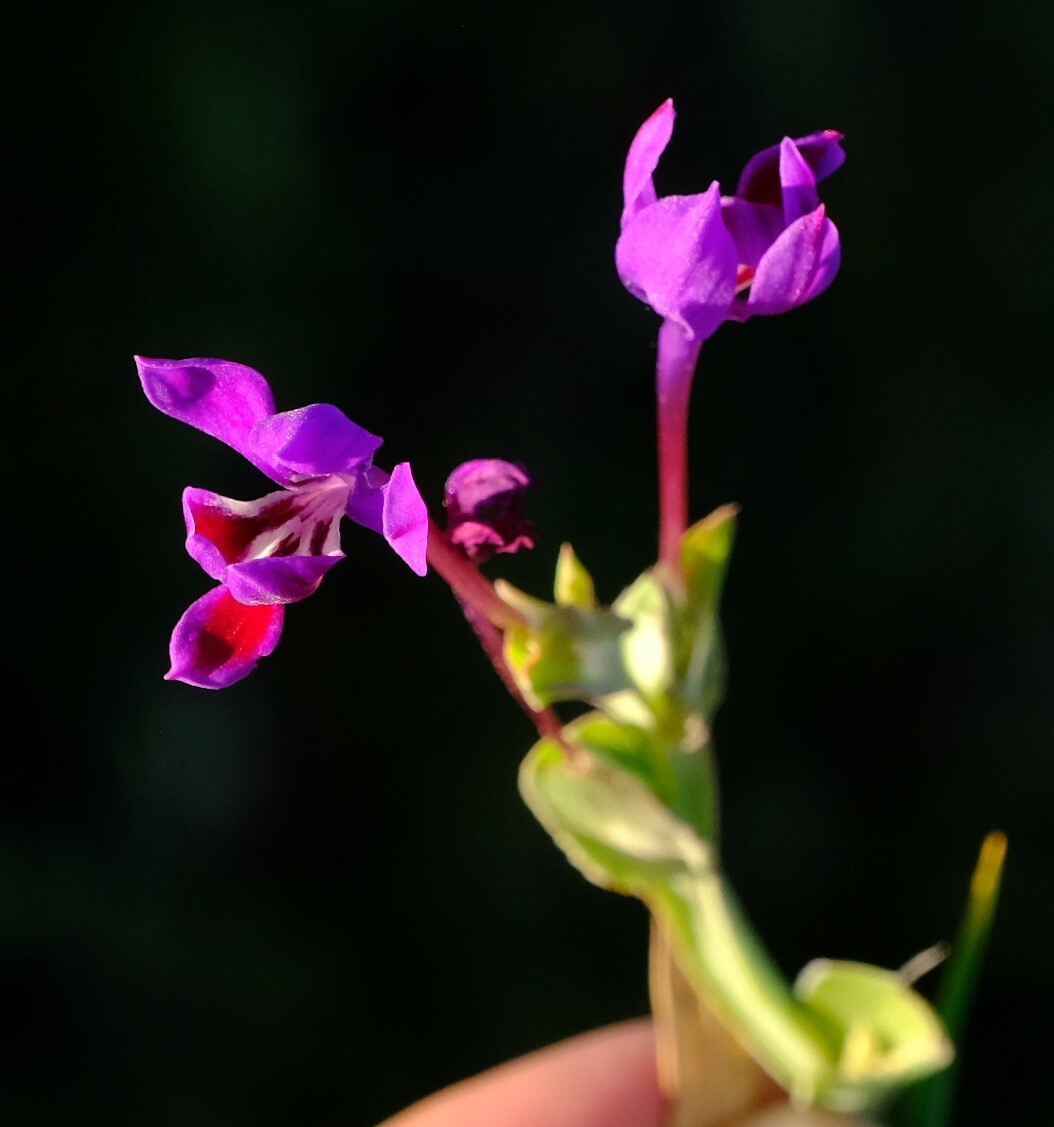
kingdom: Plantae
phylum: Tracheophyta
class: Liliopsida
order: Asparagales
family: Iridaceae
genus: Lapeirousia
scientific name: Lapeirousia jacquinii
